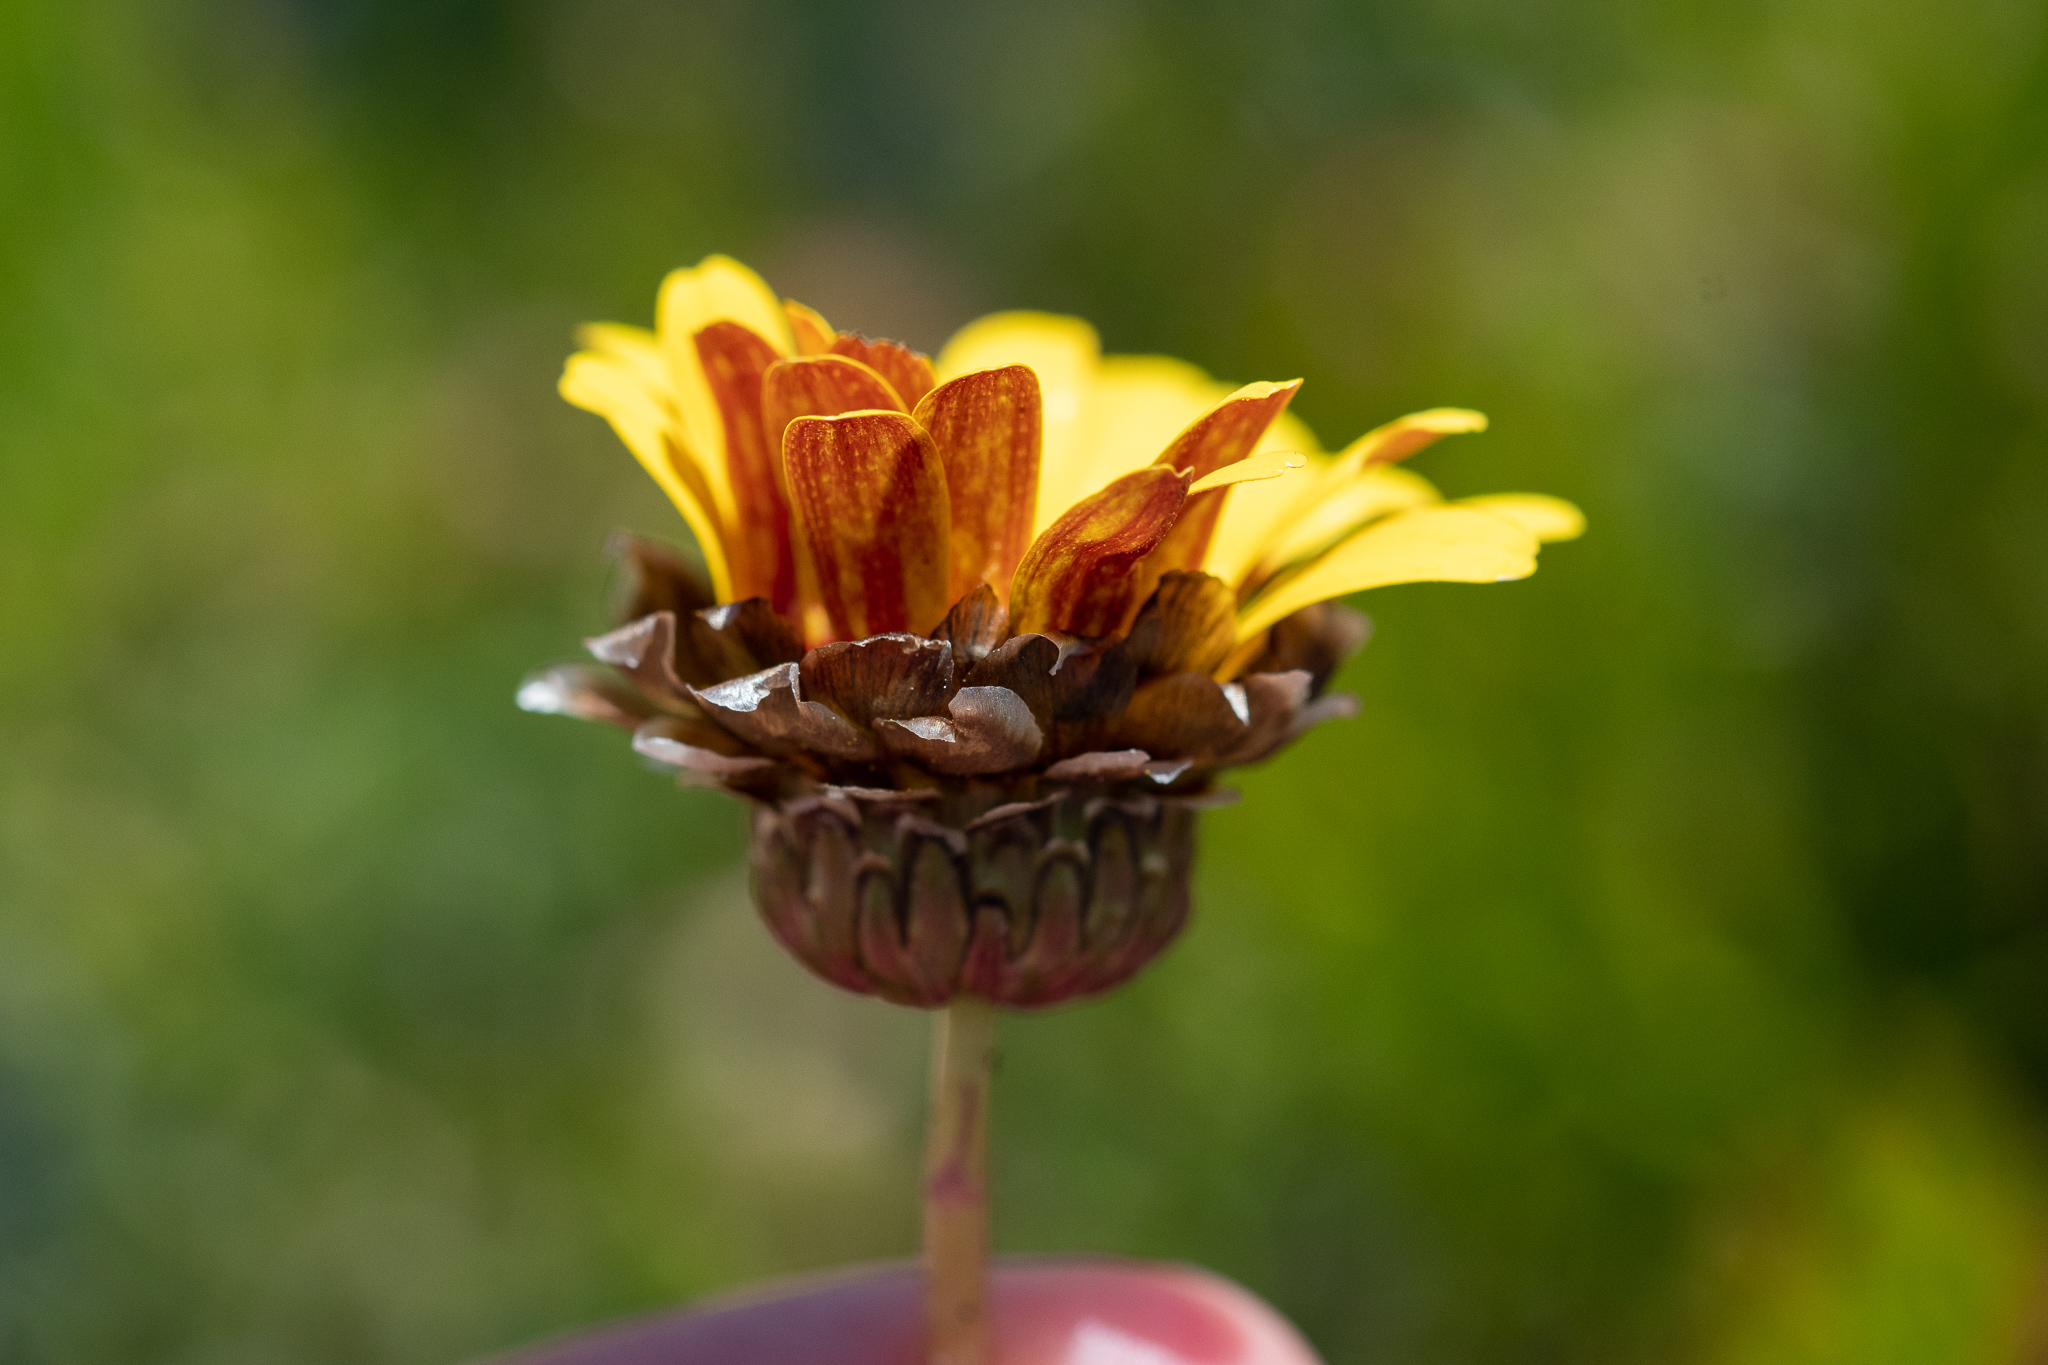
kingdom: Plantae
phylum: Tracheophyta
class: Magnoliopsida
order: Asterales
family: Asteraceae
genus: Ursinia
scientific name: Ursinia paleacea
